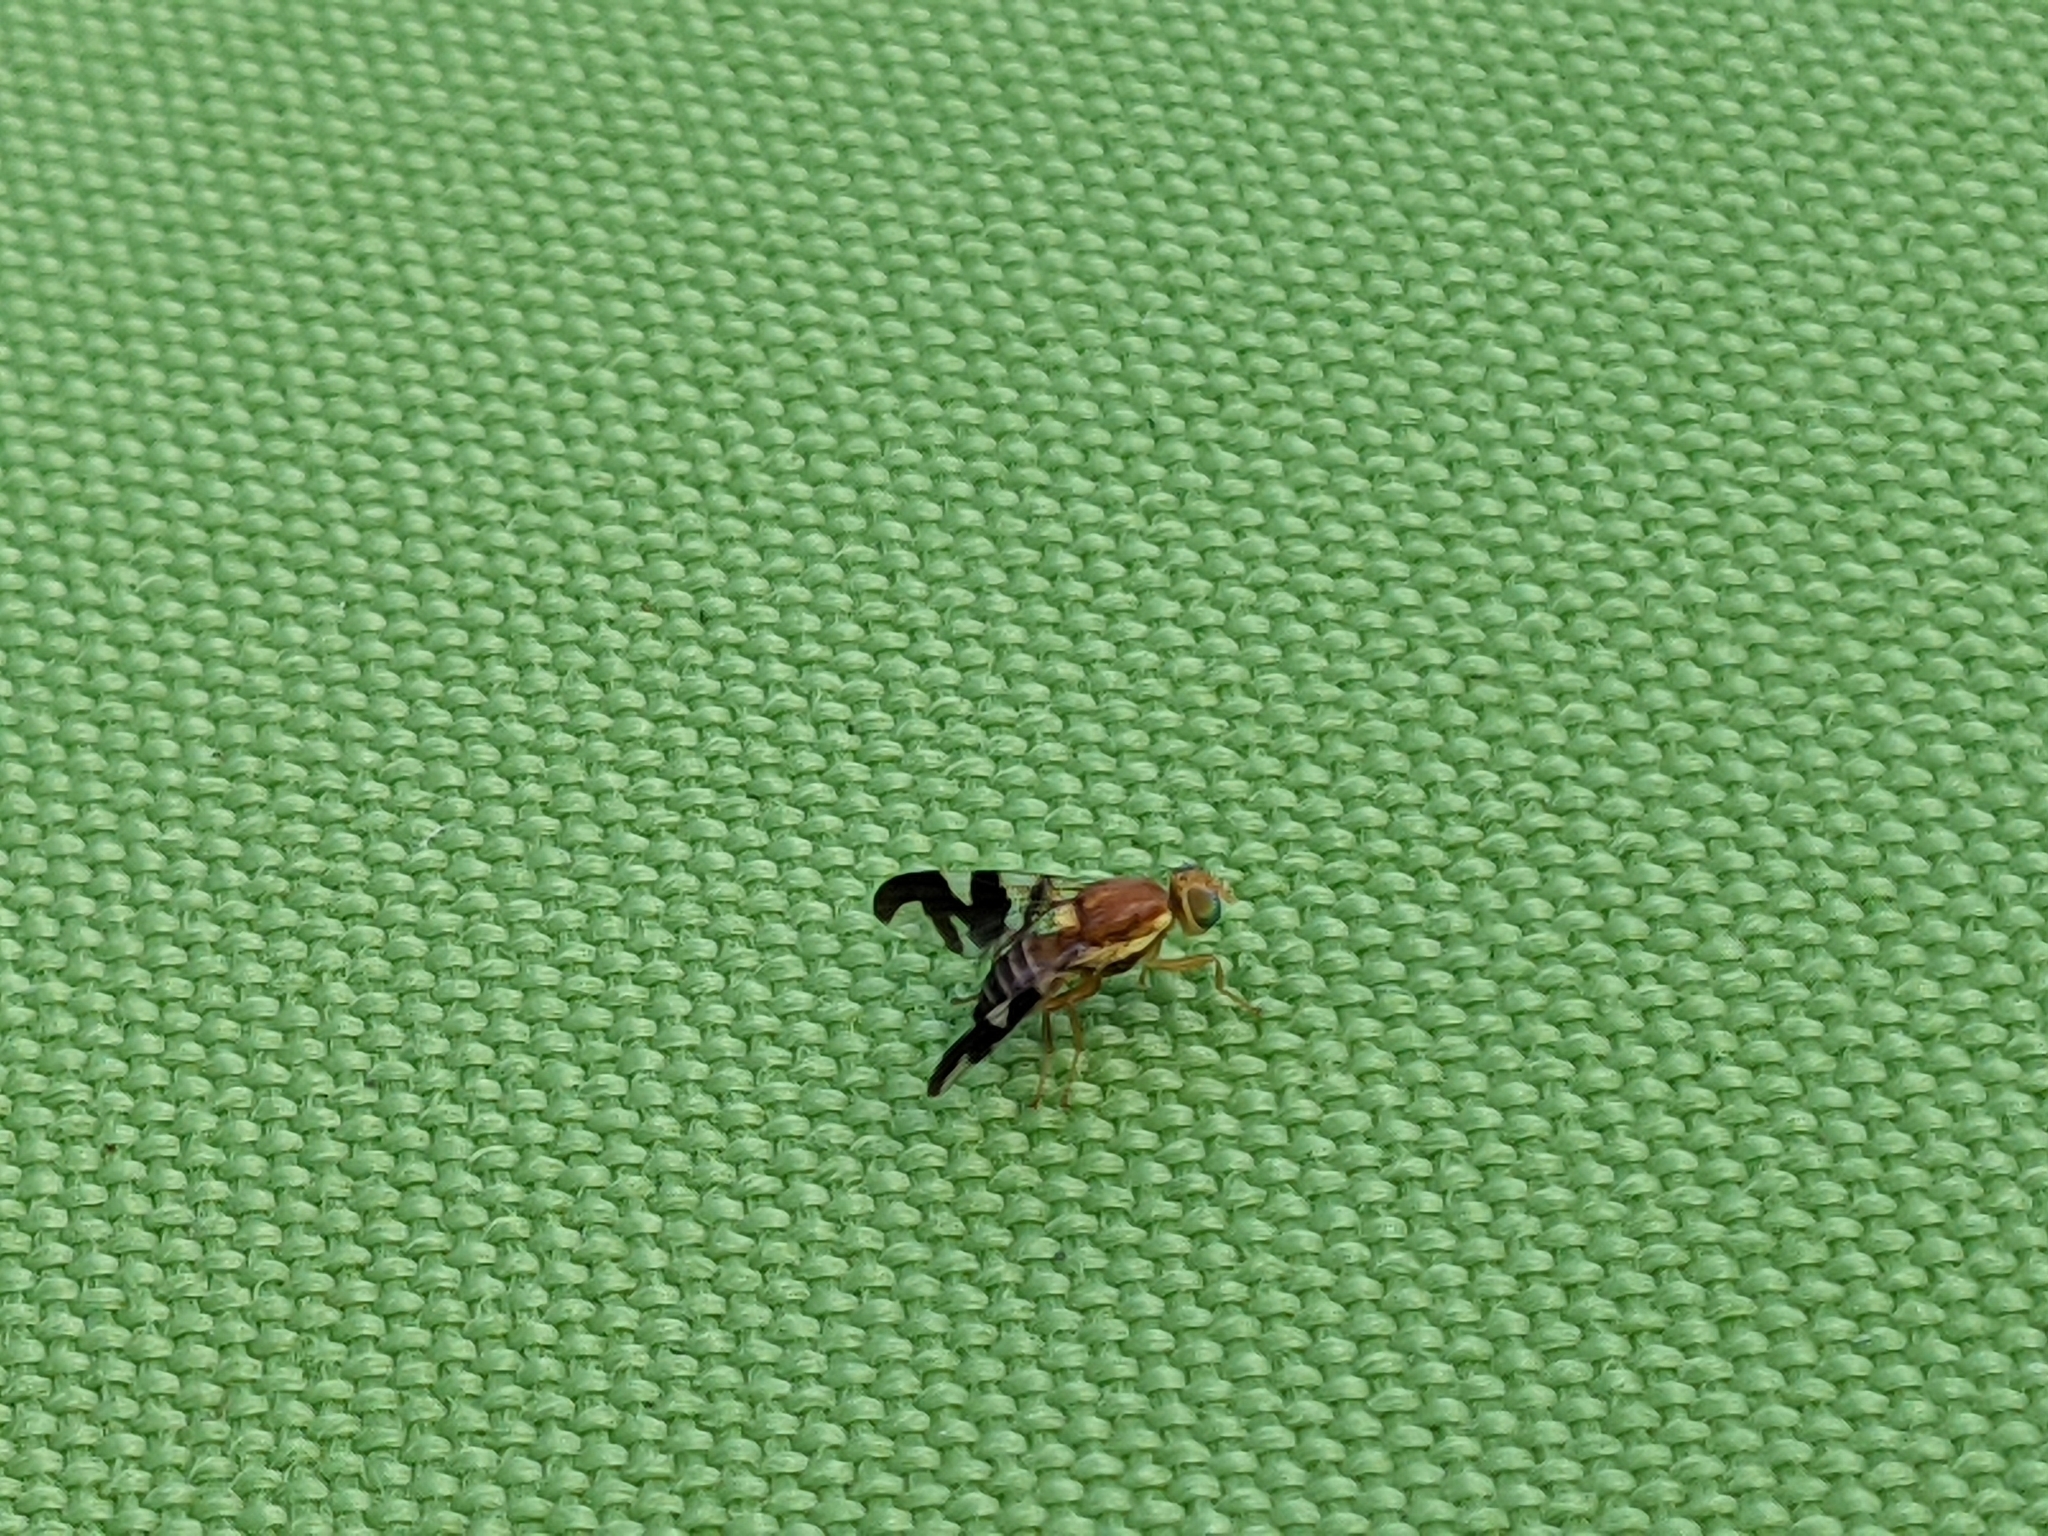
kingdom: Animalia
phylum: Arthropoda
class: Insecta
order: Diptera
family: Tephritidae
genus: Rhagoletis
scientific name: Rhagoletis suavis
